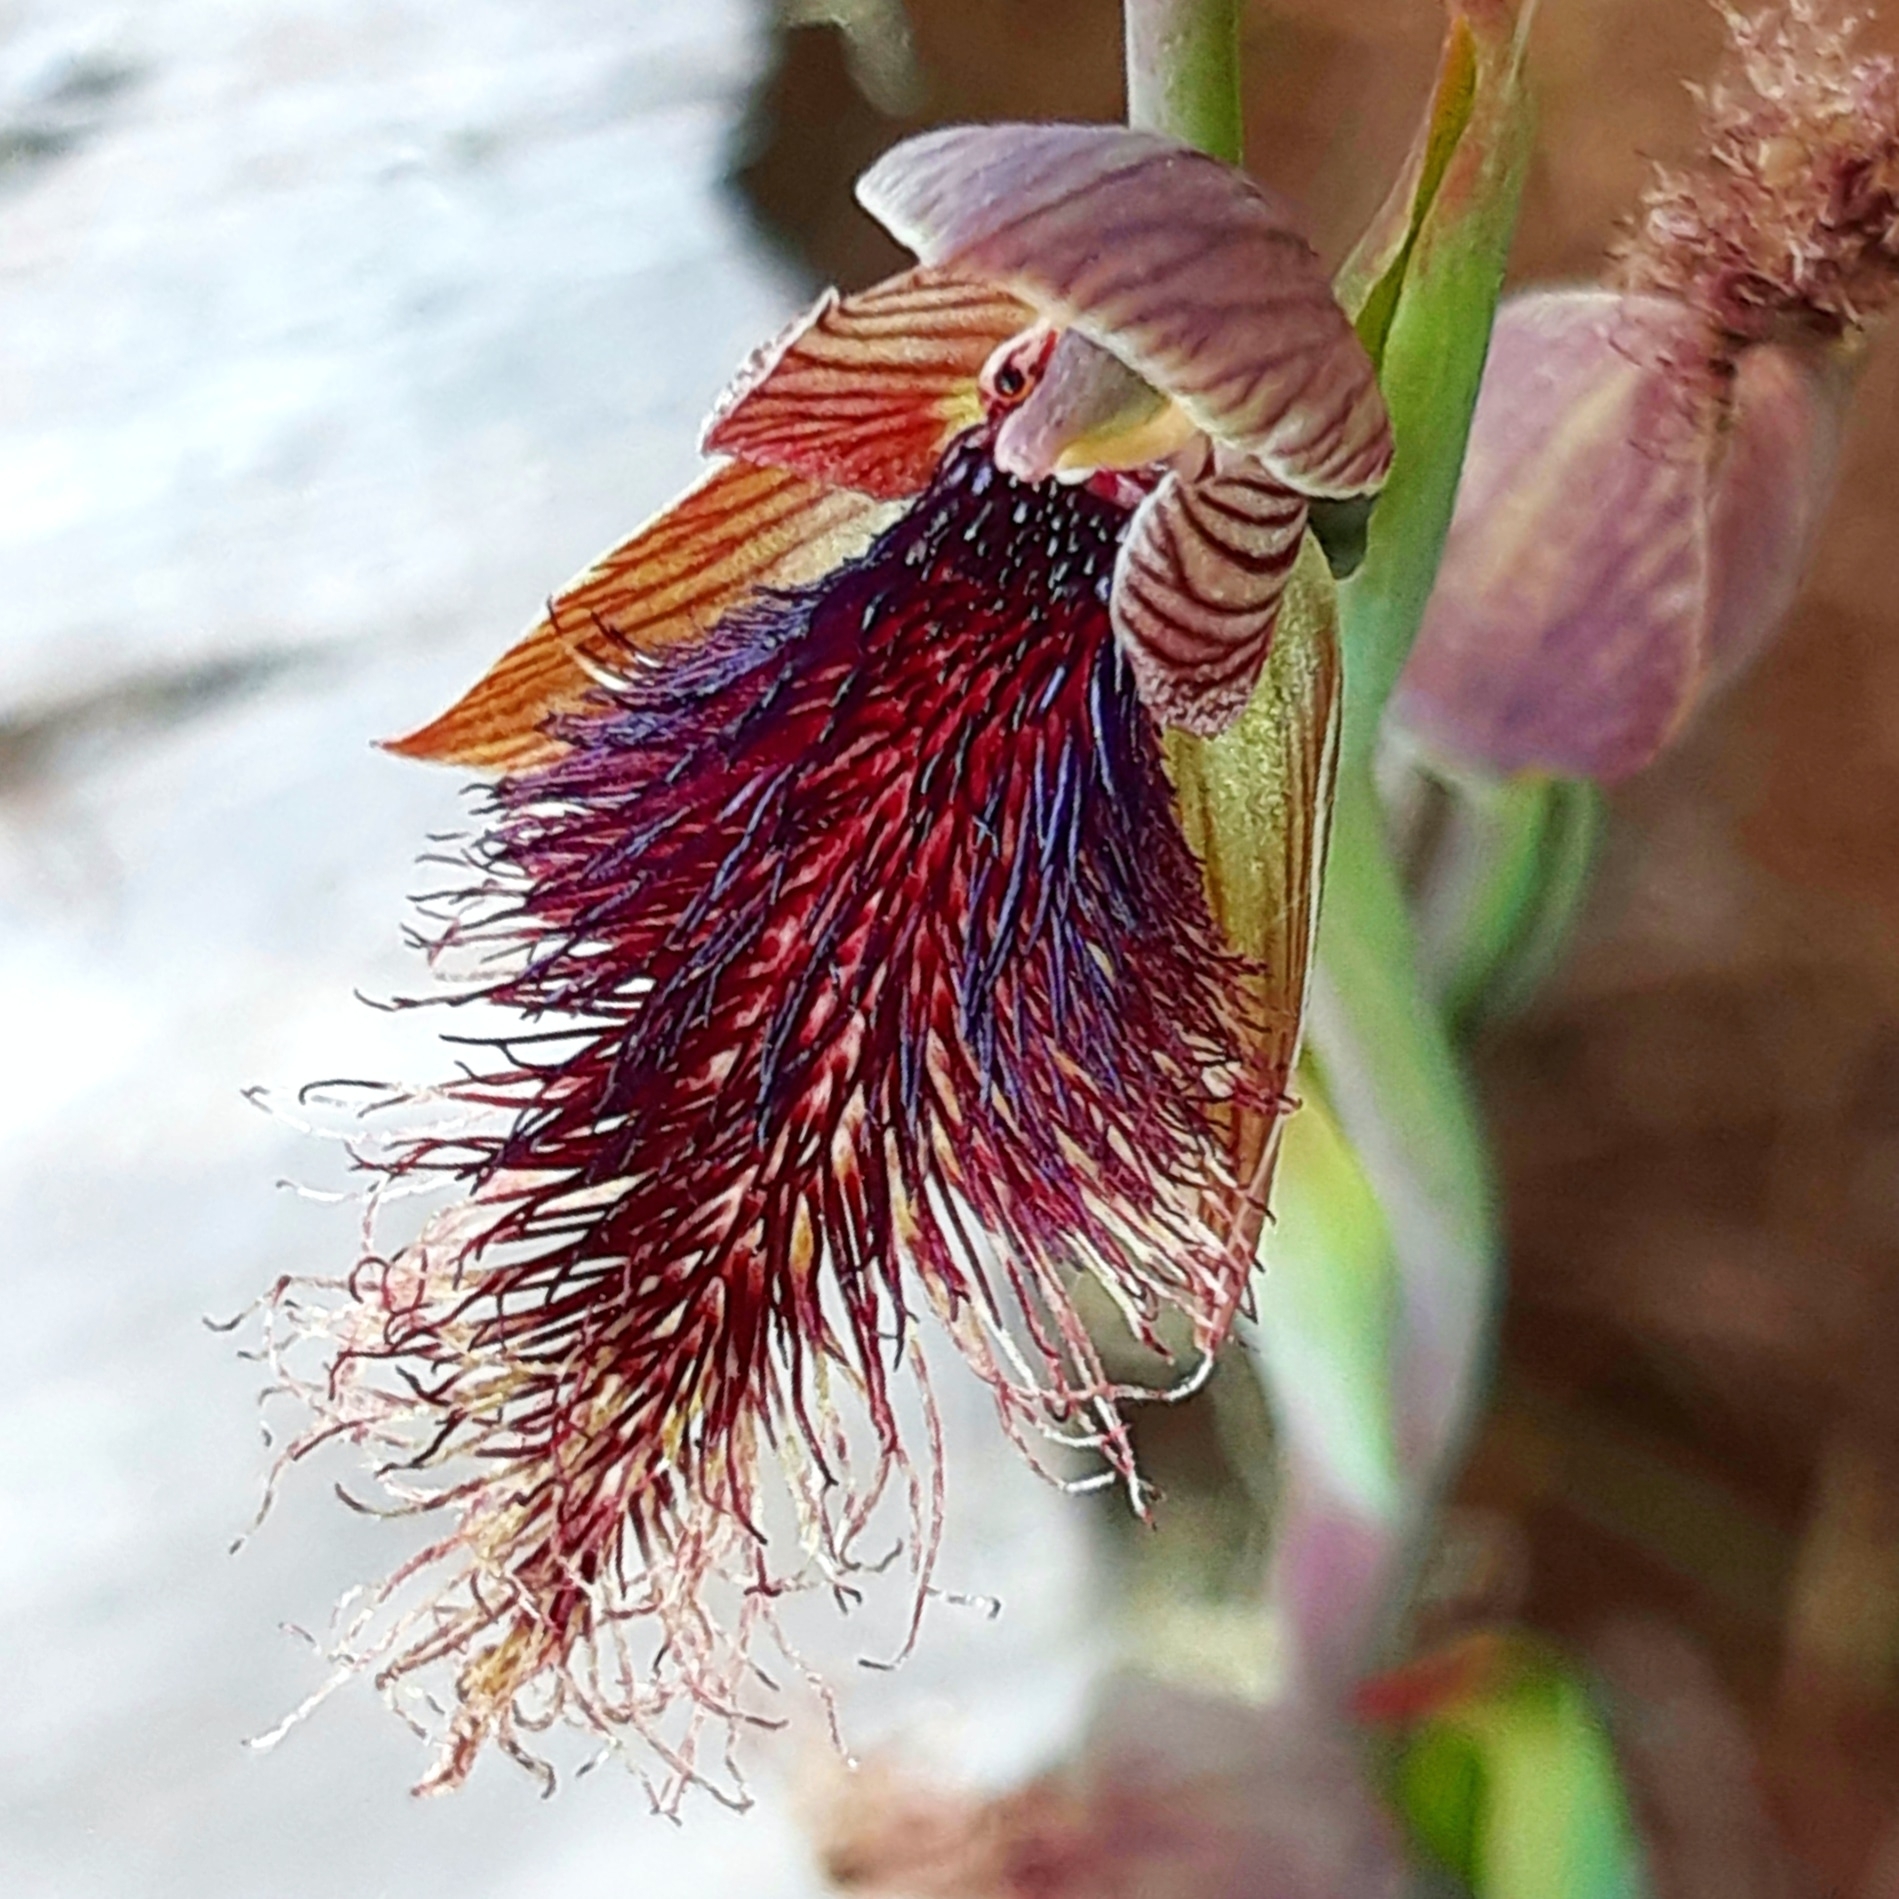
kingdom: Plantae
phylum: Tracheophyta
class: Liliopsida
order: Asparagales
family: Orchidaceae
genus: Calochilus
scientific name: Calochilus robertsonii
